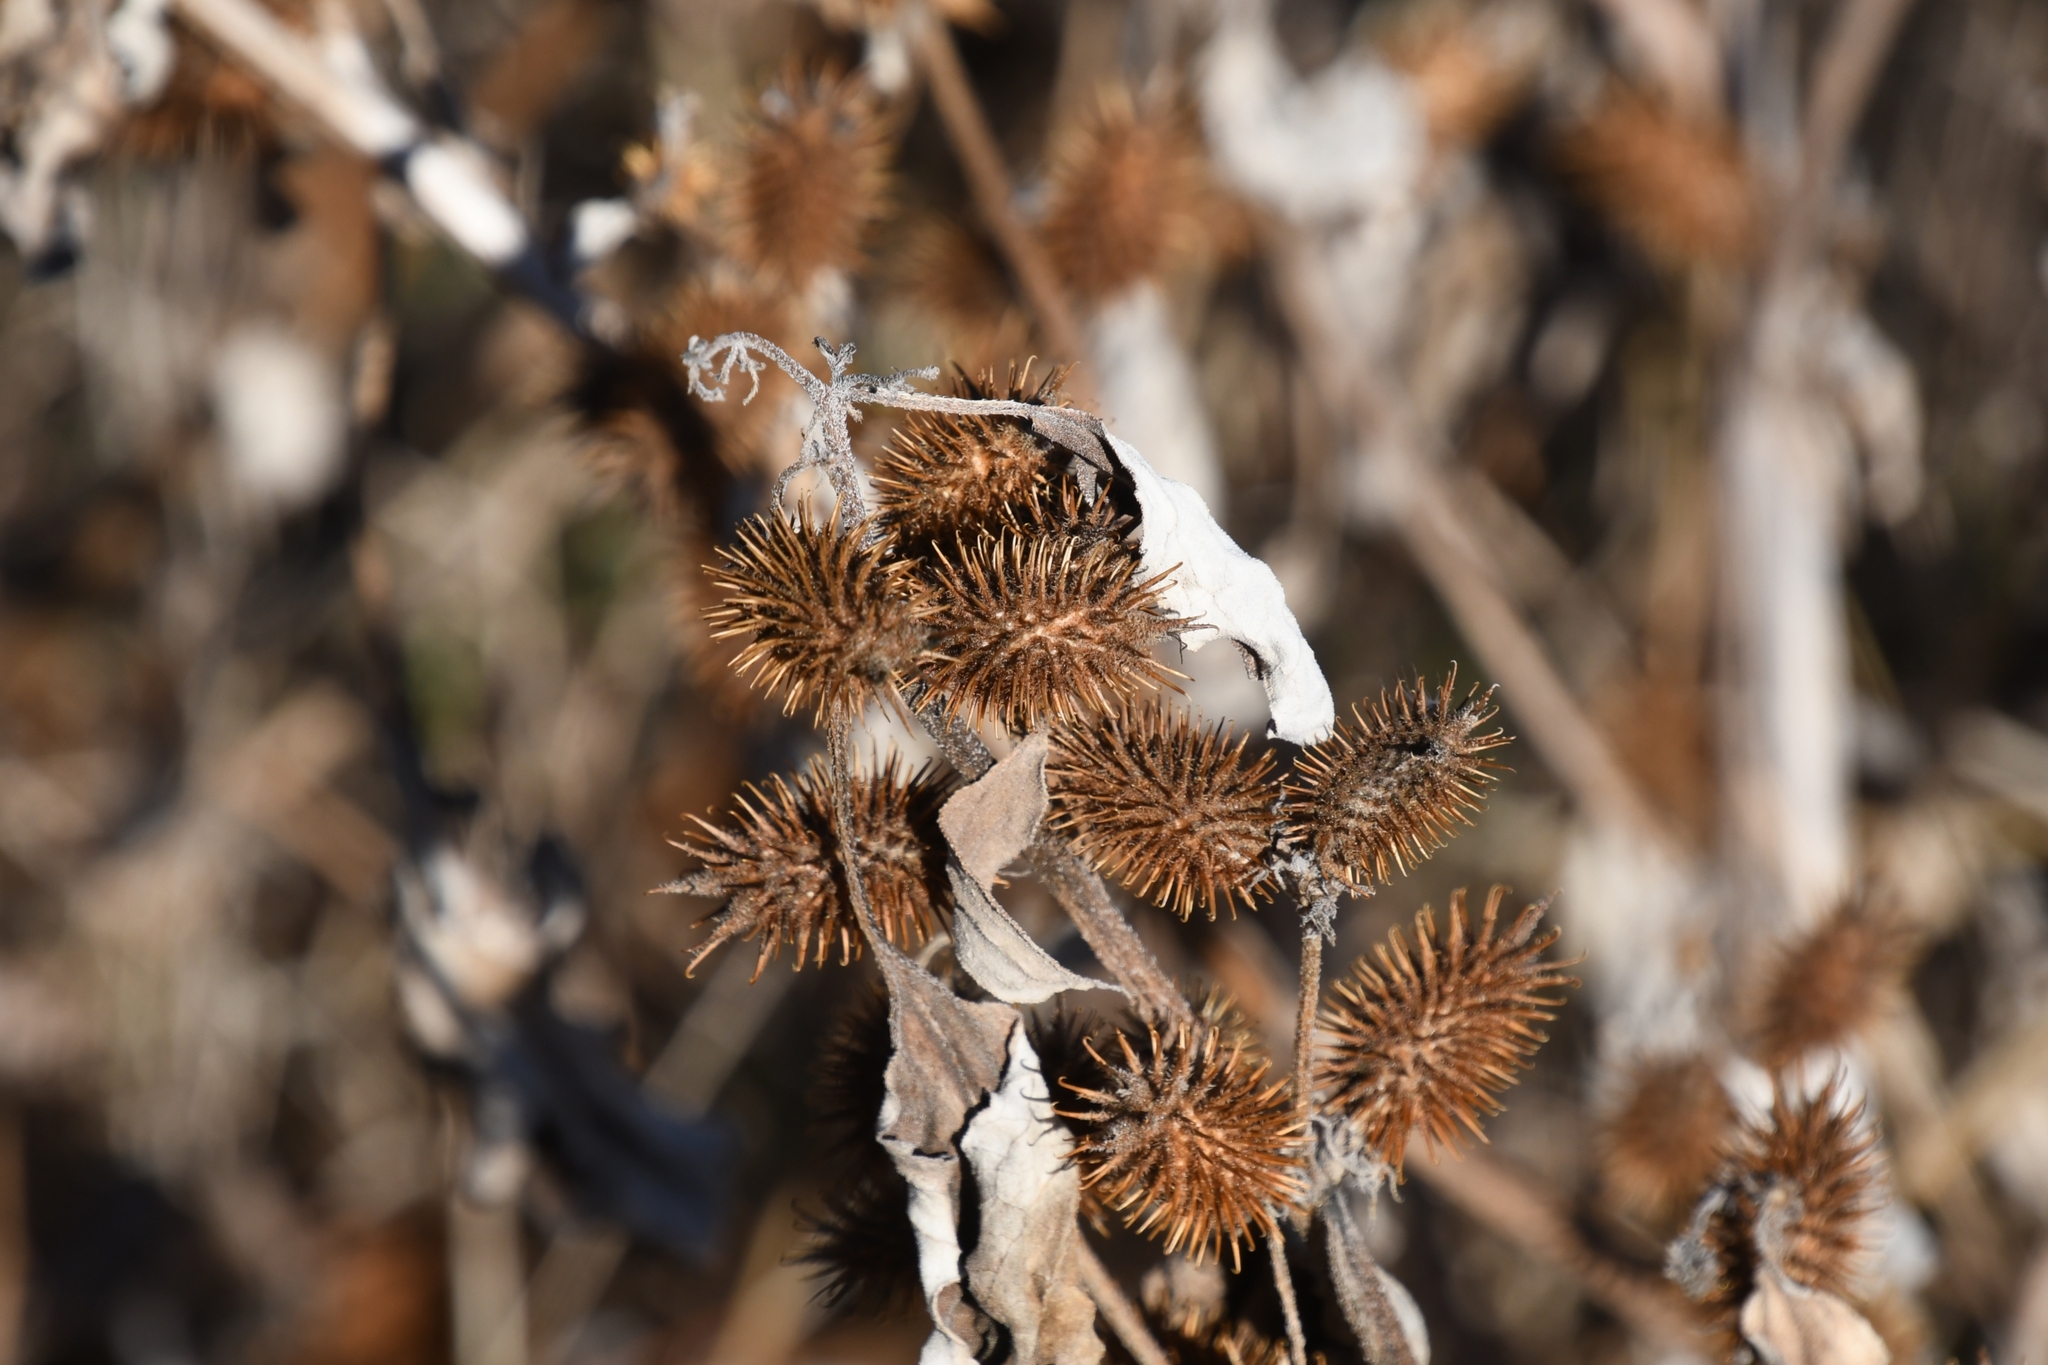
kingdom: Plantae
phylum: Tracheophyta
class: Magnoliopsida
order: Asterales
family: Asteraceae
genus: Xanthium
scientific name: Xanthium strumarium
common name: Rough cocklebur
